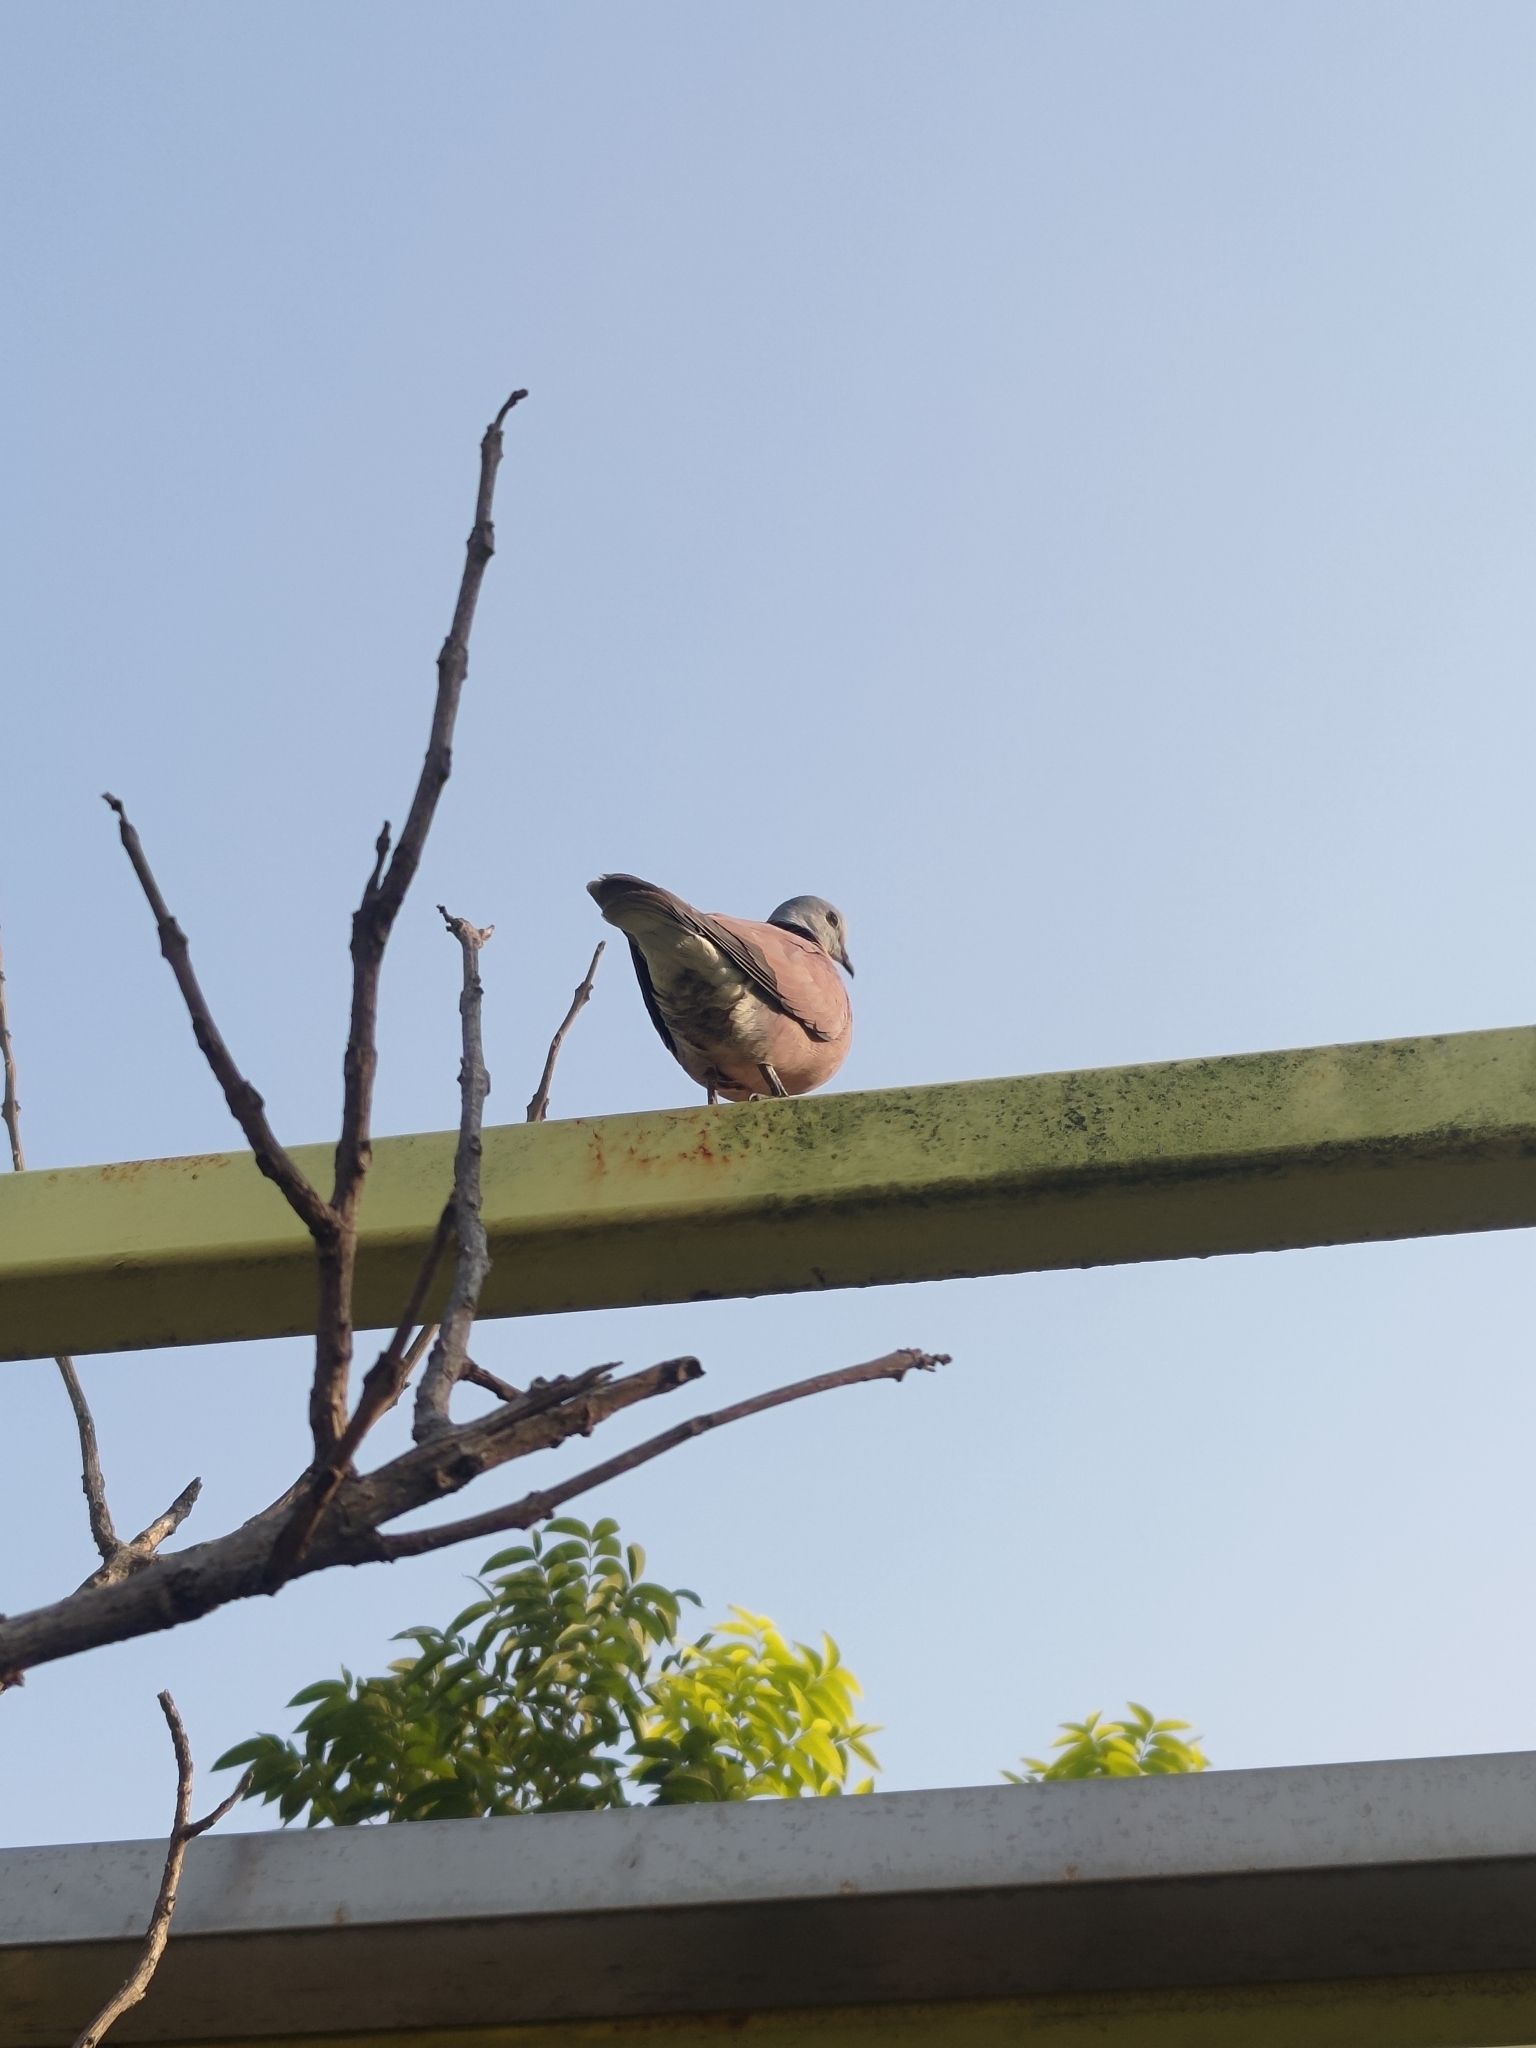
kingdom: Animalia
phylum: Chordata
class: Aves
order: Columbiformes
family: Columbidae
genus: Streptopelia
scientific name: Streptopelia tranquebarica
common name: Red turtle dove
